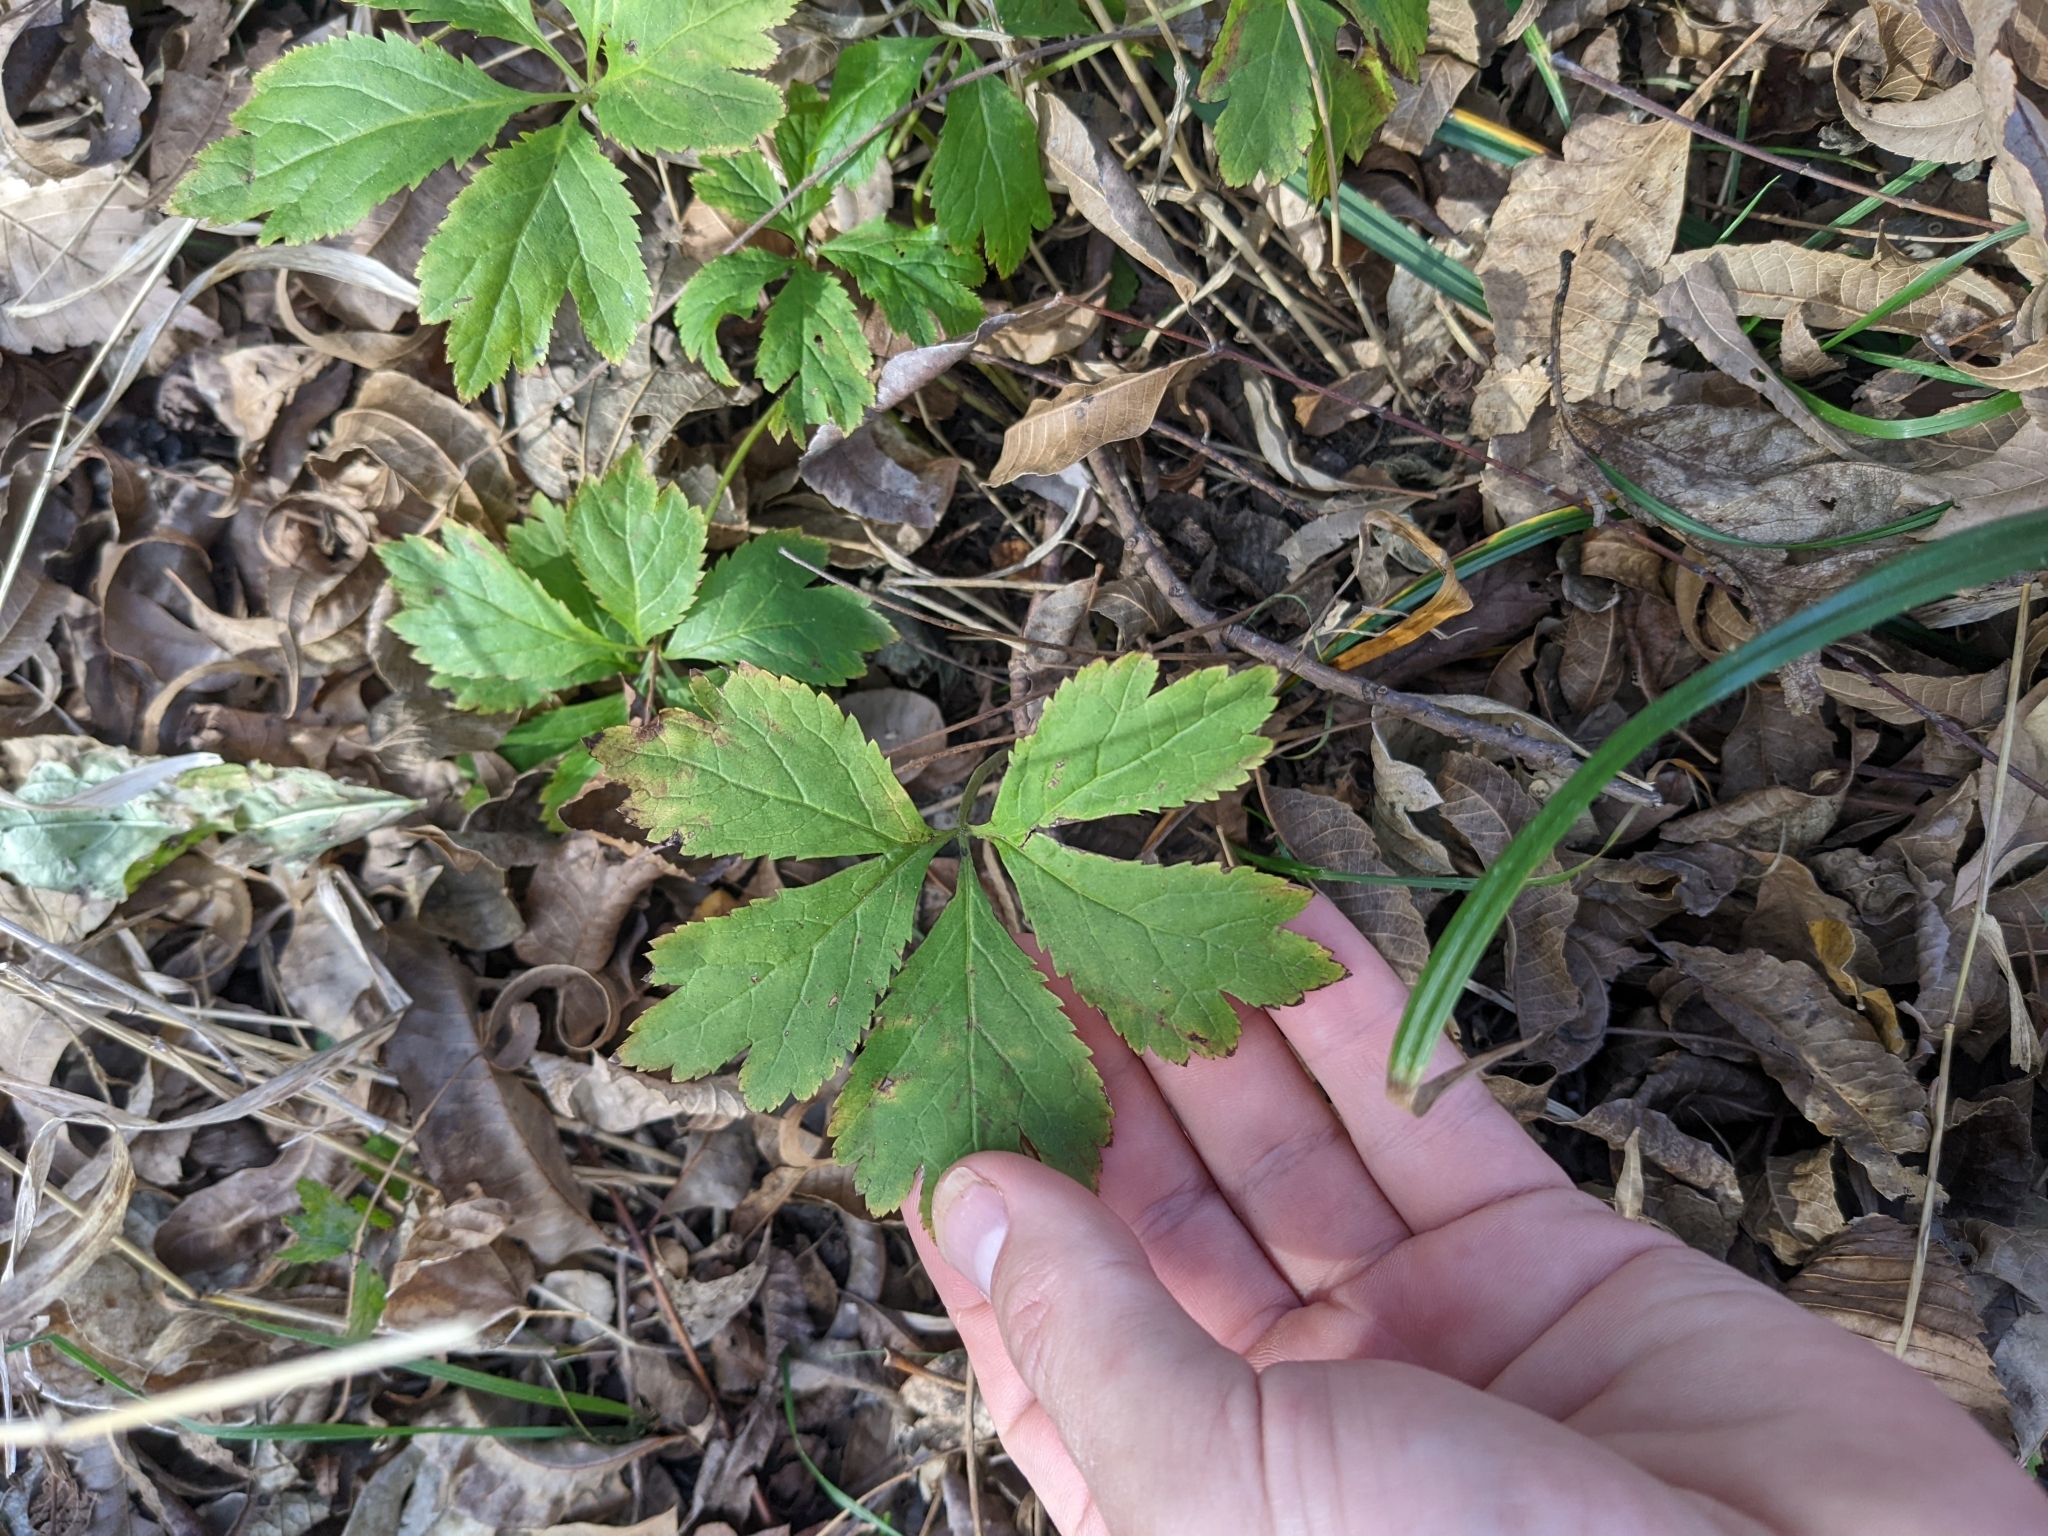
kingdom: Plantae
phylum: Tracheophyta
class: Magnoliopsida
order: Apiales
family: Apiaceae
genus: Sanicula
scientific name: Sanicula canadensis
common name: Canada sanicle
